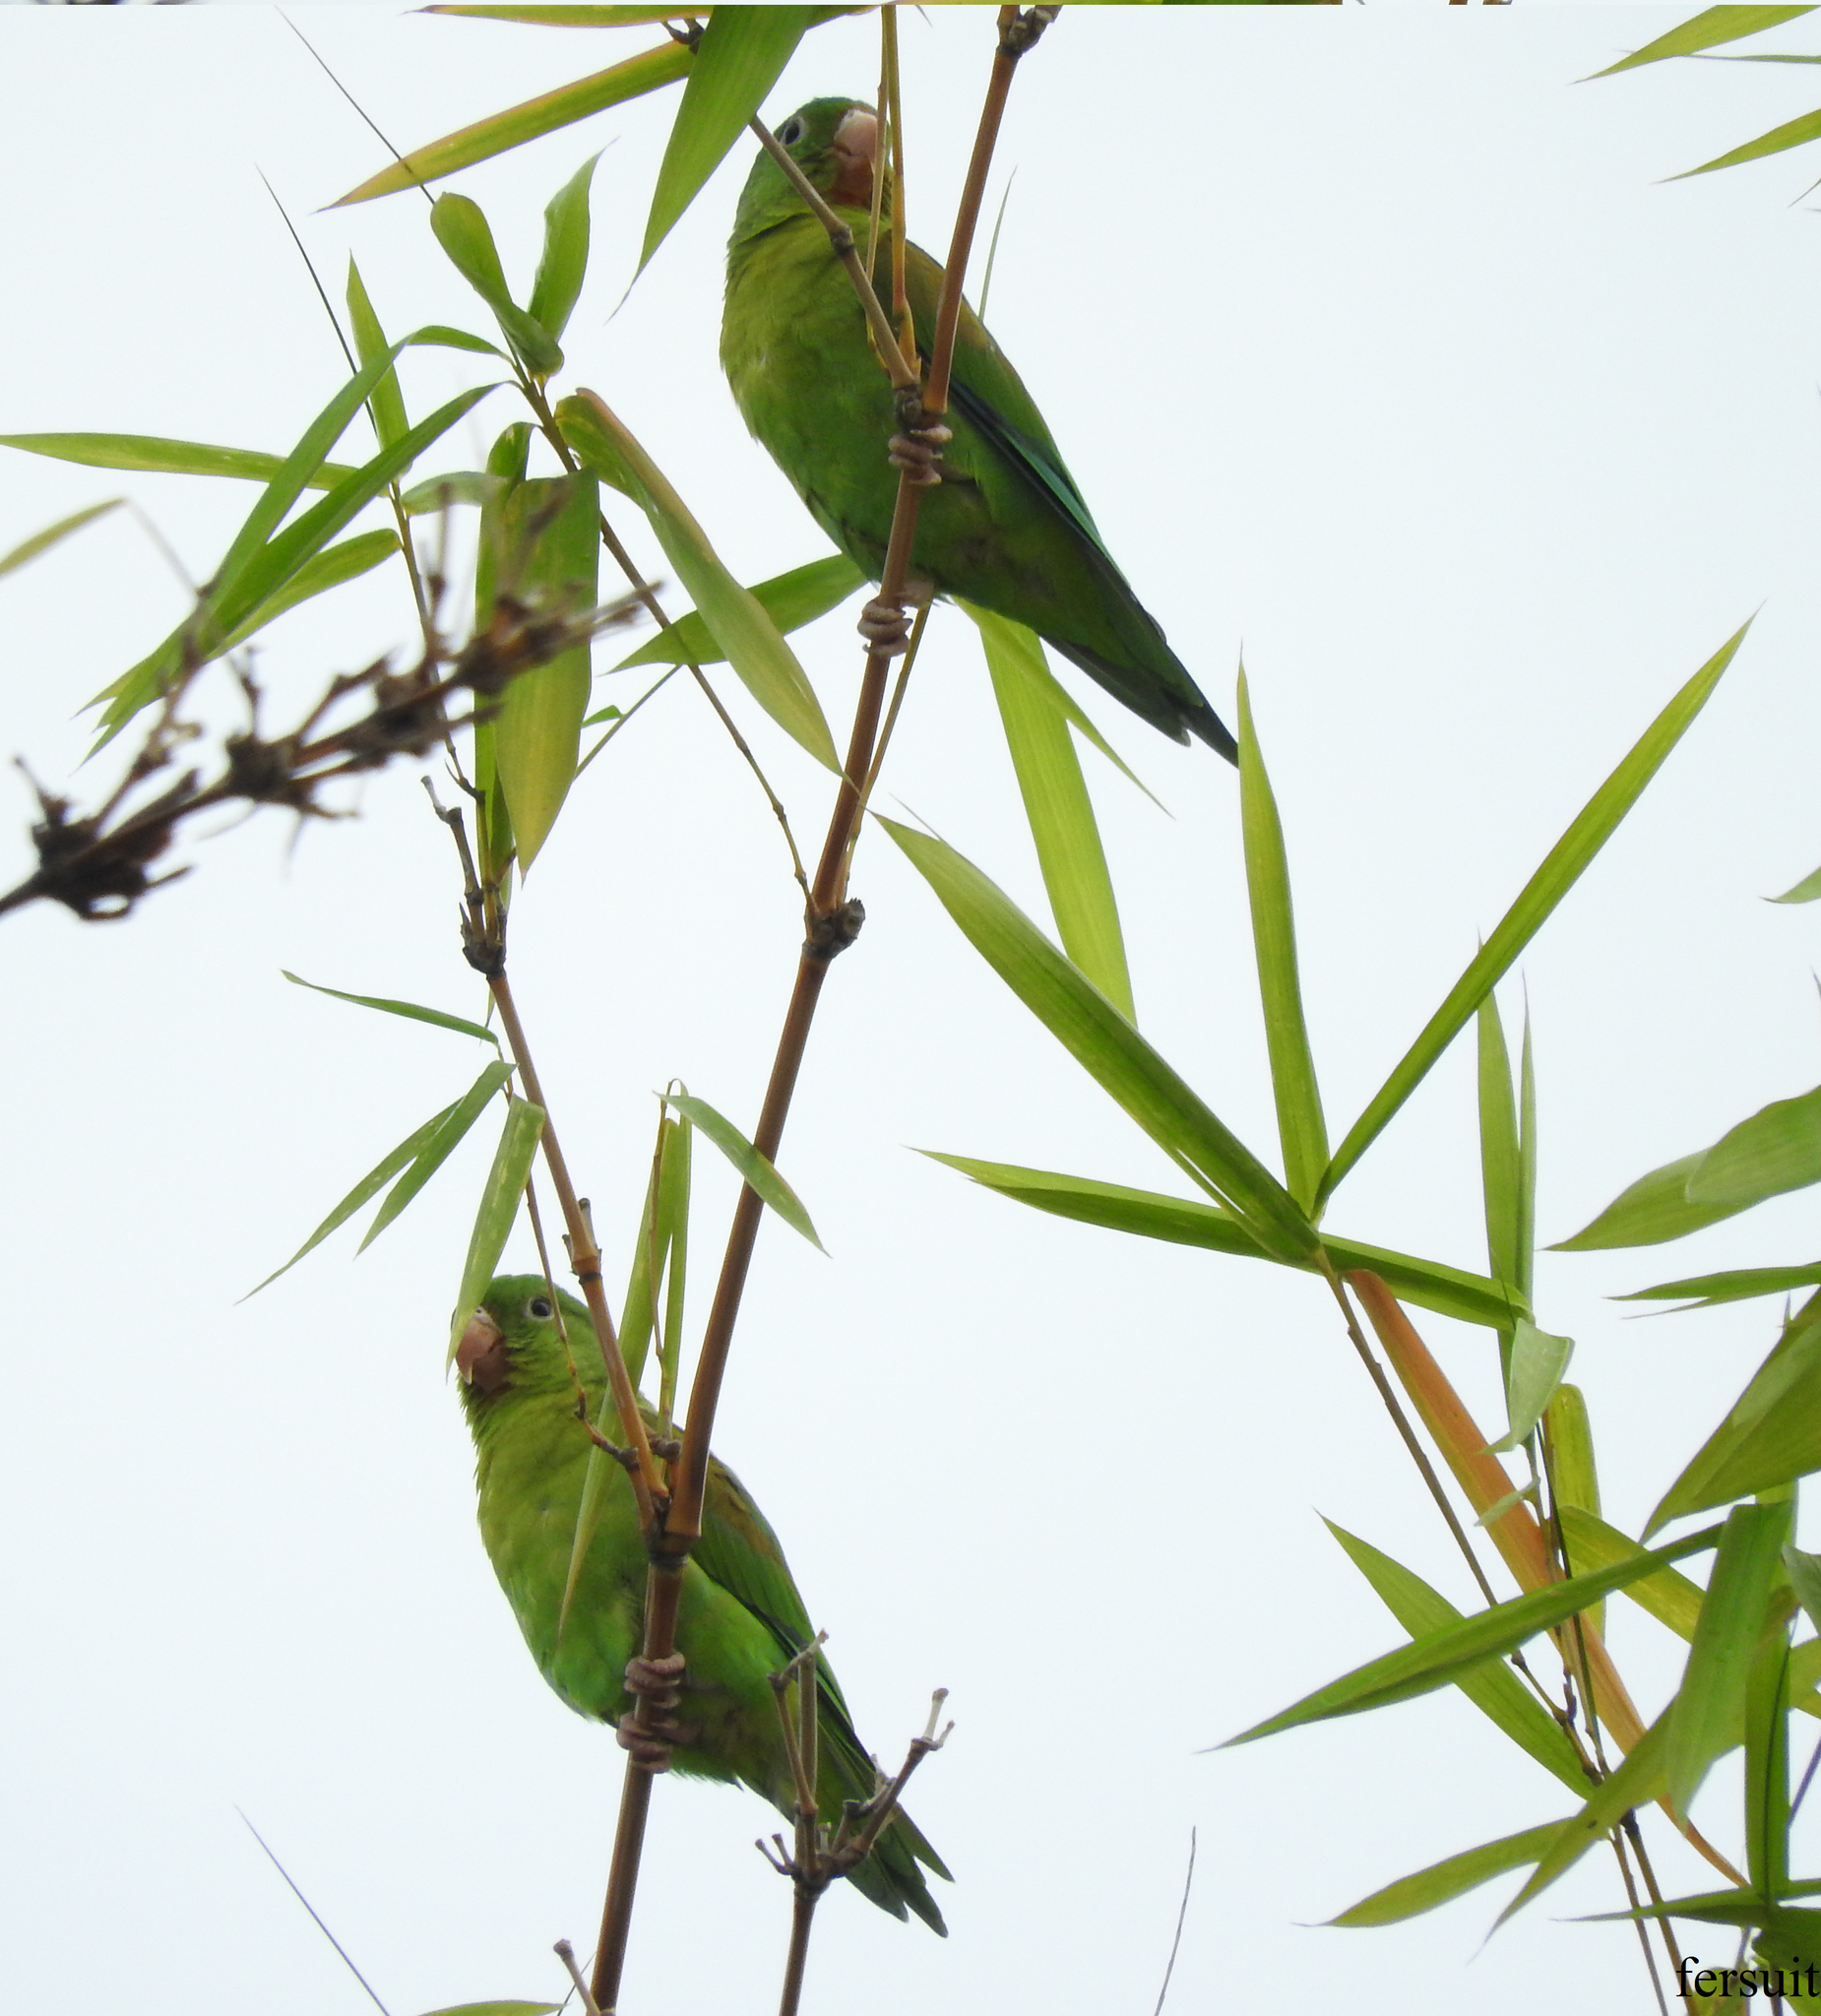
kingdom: Animalia
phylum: Chordata
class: Aves
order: Psittaciformes
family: Psittacidae
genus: Brotogeris
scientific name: Brotogeris jugularis
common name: Orange-chinned parakeet
